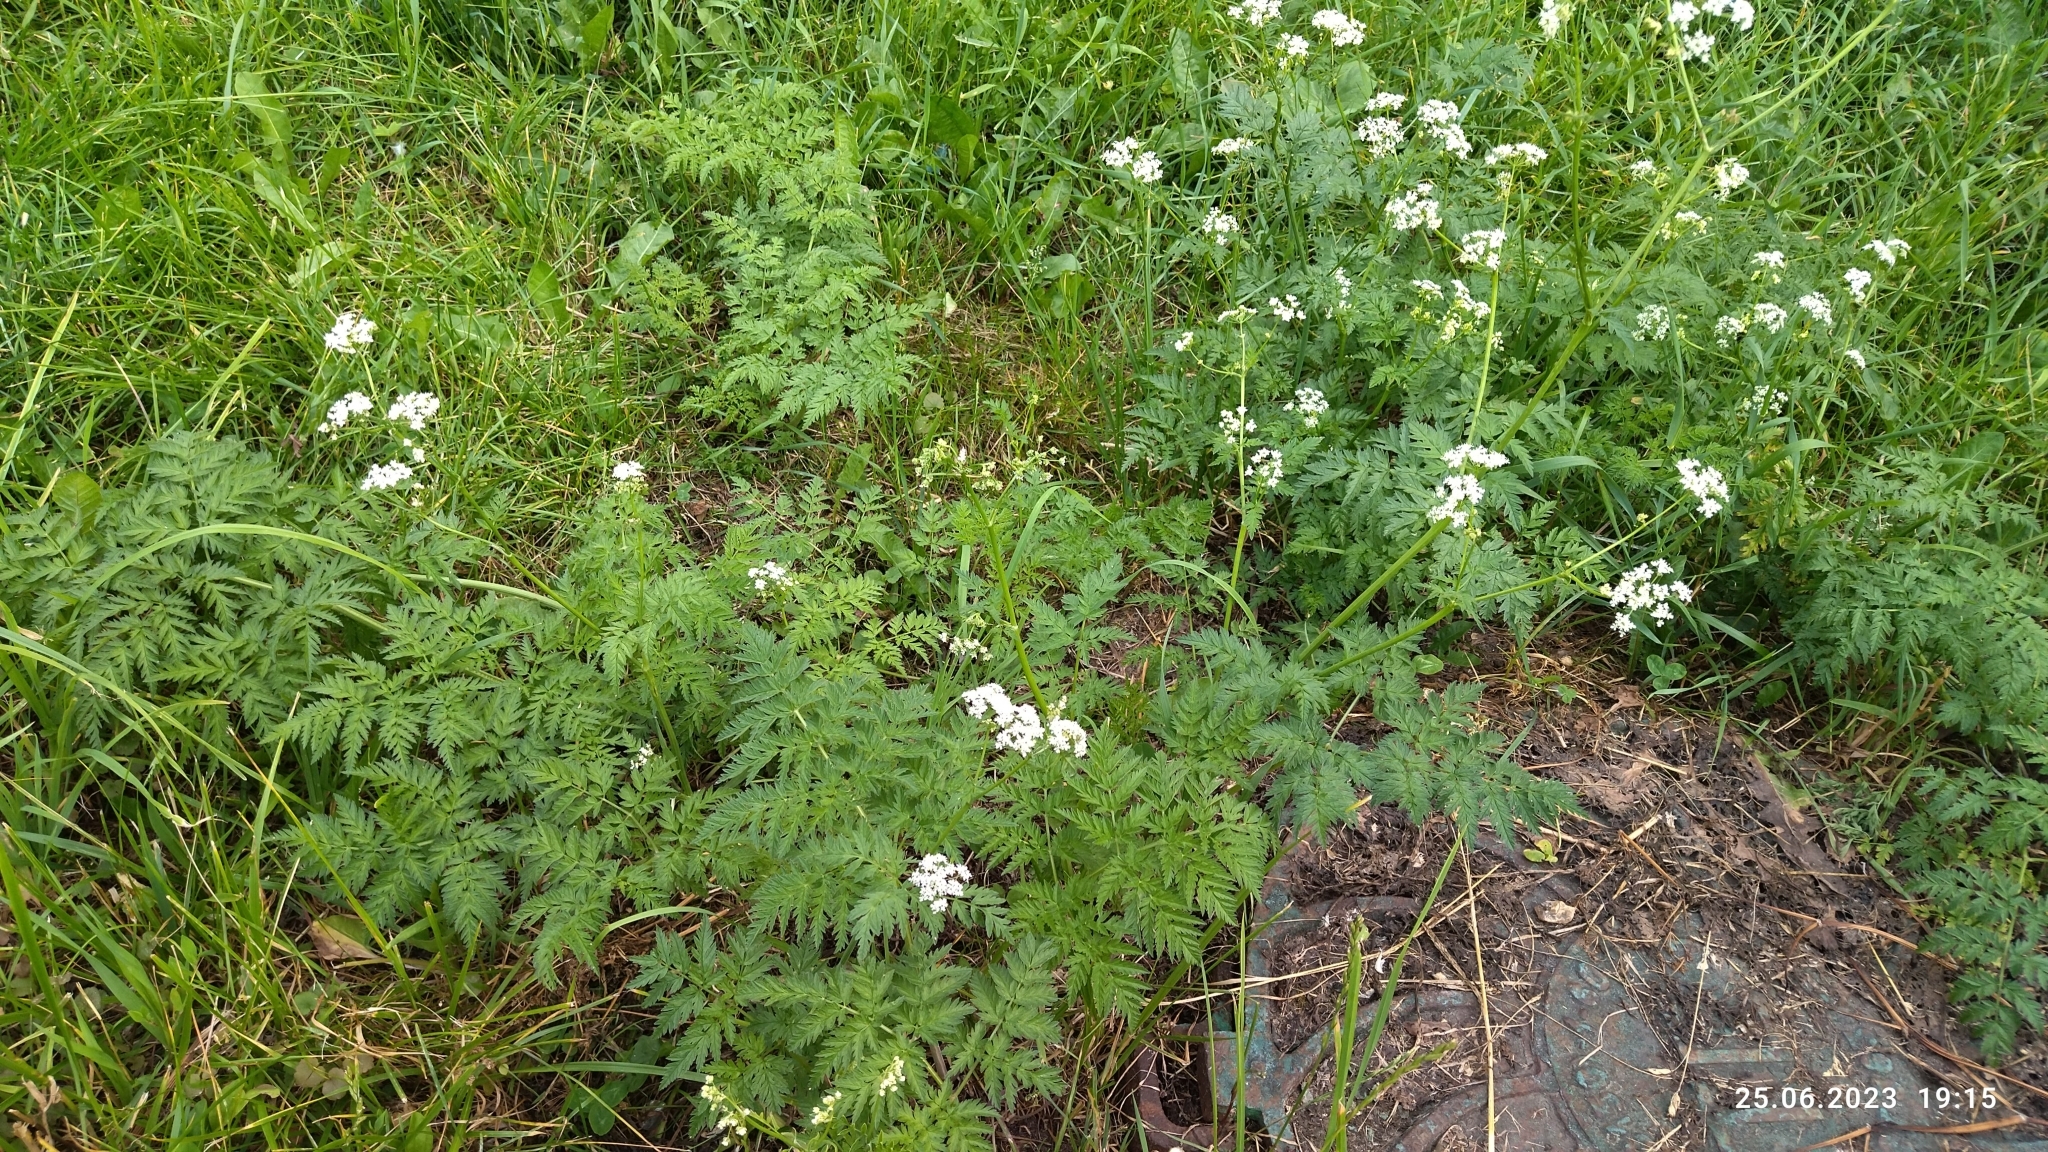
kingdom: Plantae
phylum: Tracheophyta
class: Magnoliopsida
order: Apiales
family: Apiaceae
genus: Anthriscus
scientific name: Anthriscus sylvestris
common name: Cow parsley
